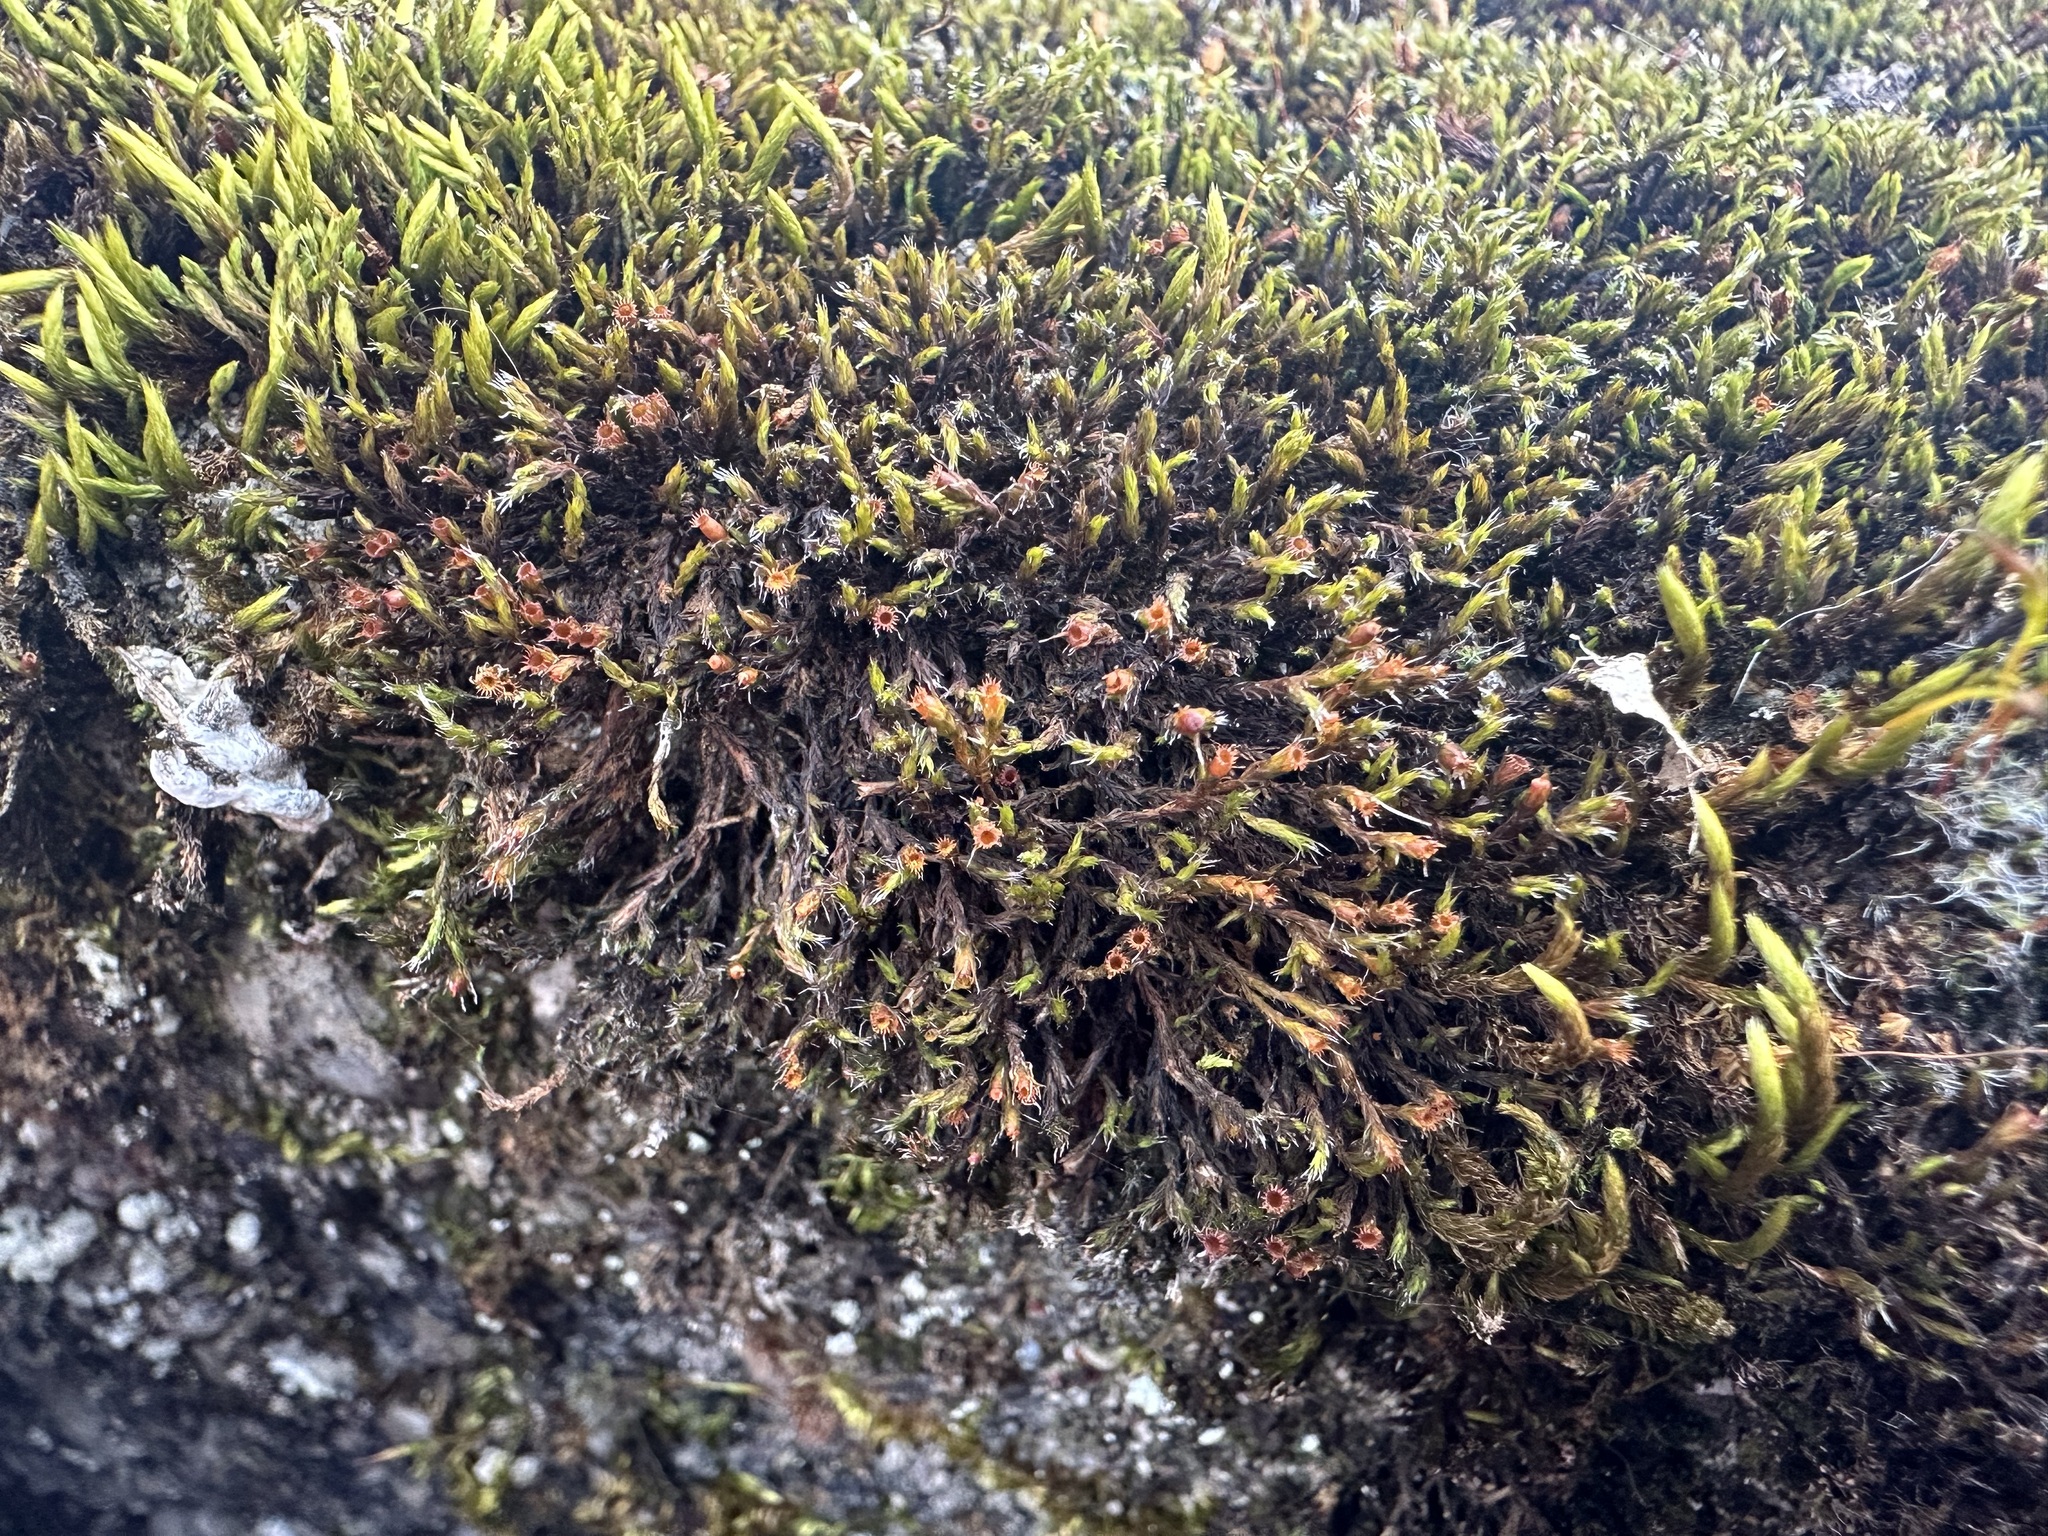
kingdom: Plantae
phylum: Bryophyta
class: Bryopsida
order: Grimmiales
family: Grimmiaceae
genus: Schistidium
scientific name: Schistidium apocarpum
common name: Radiate bloom moss
